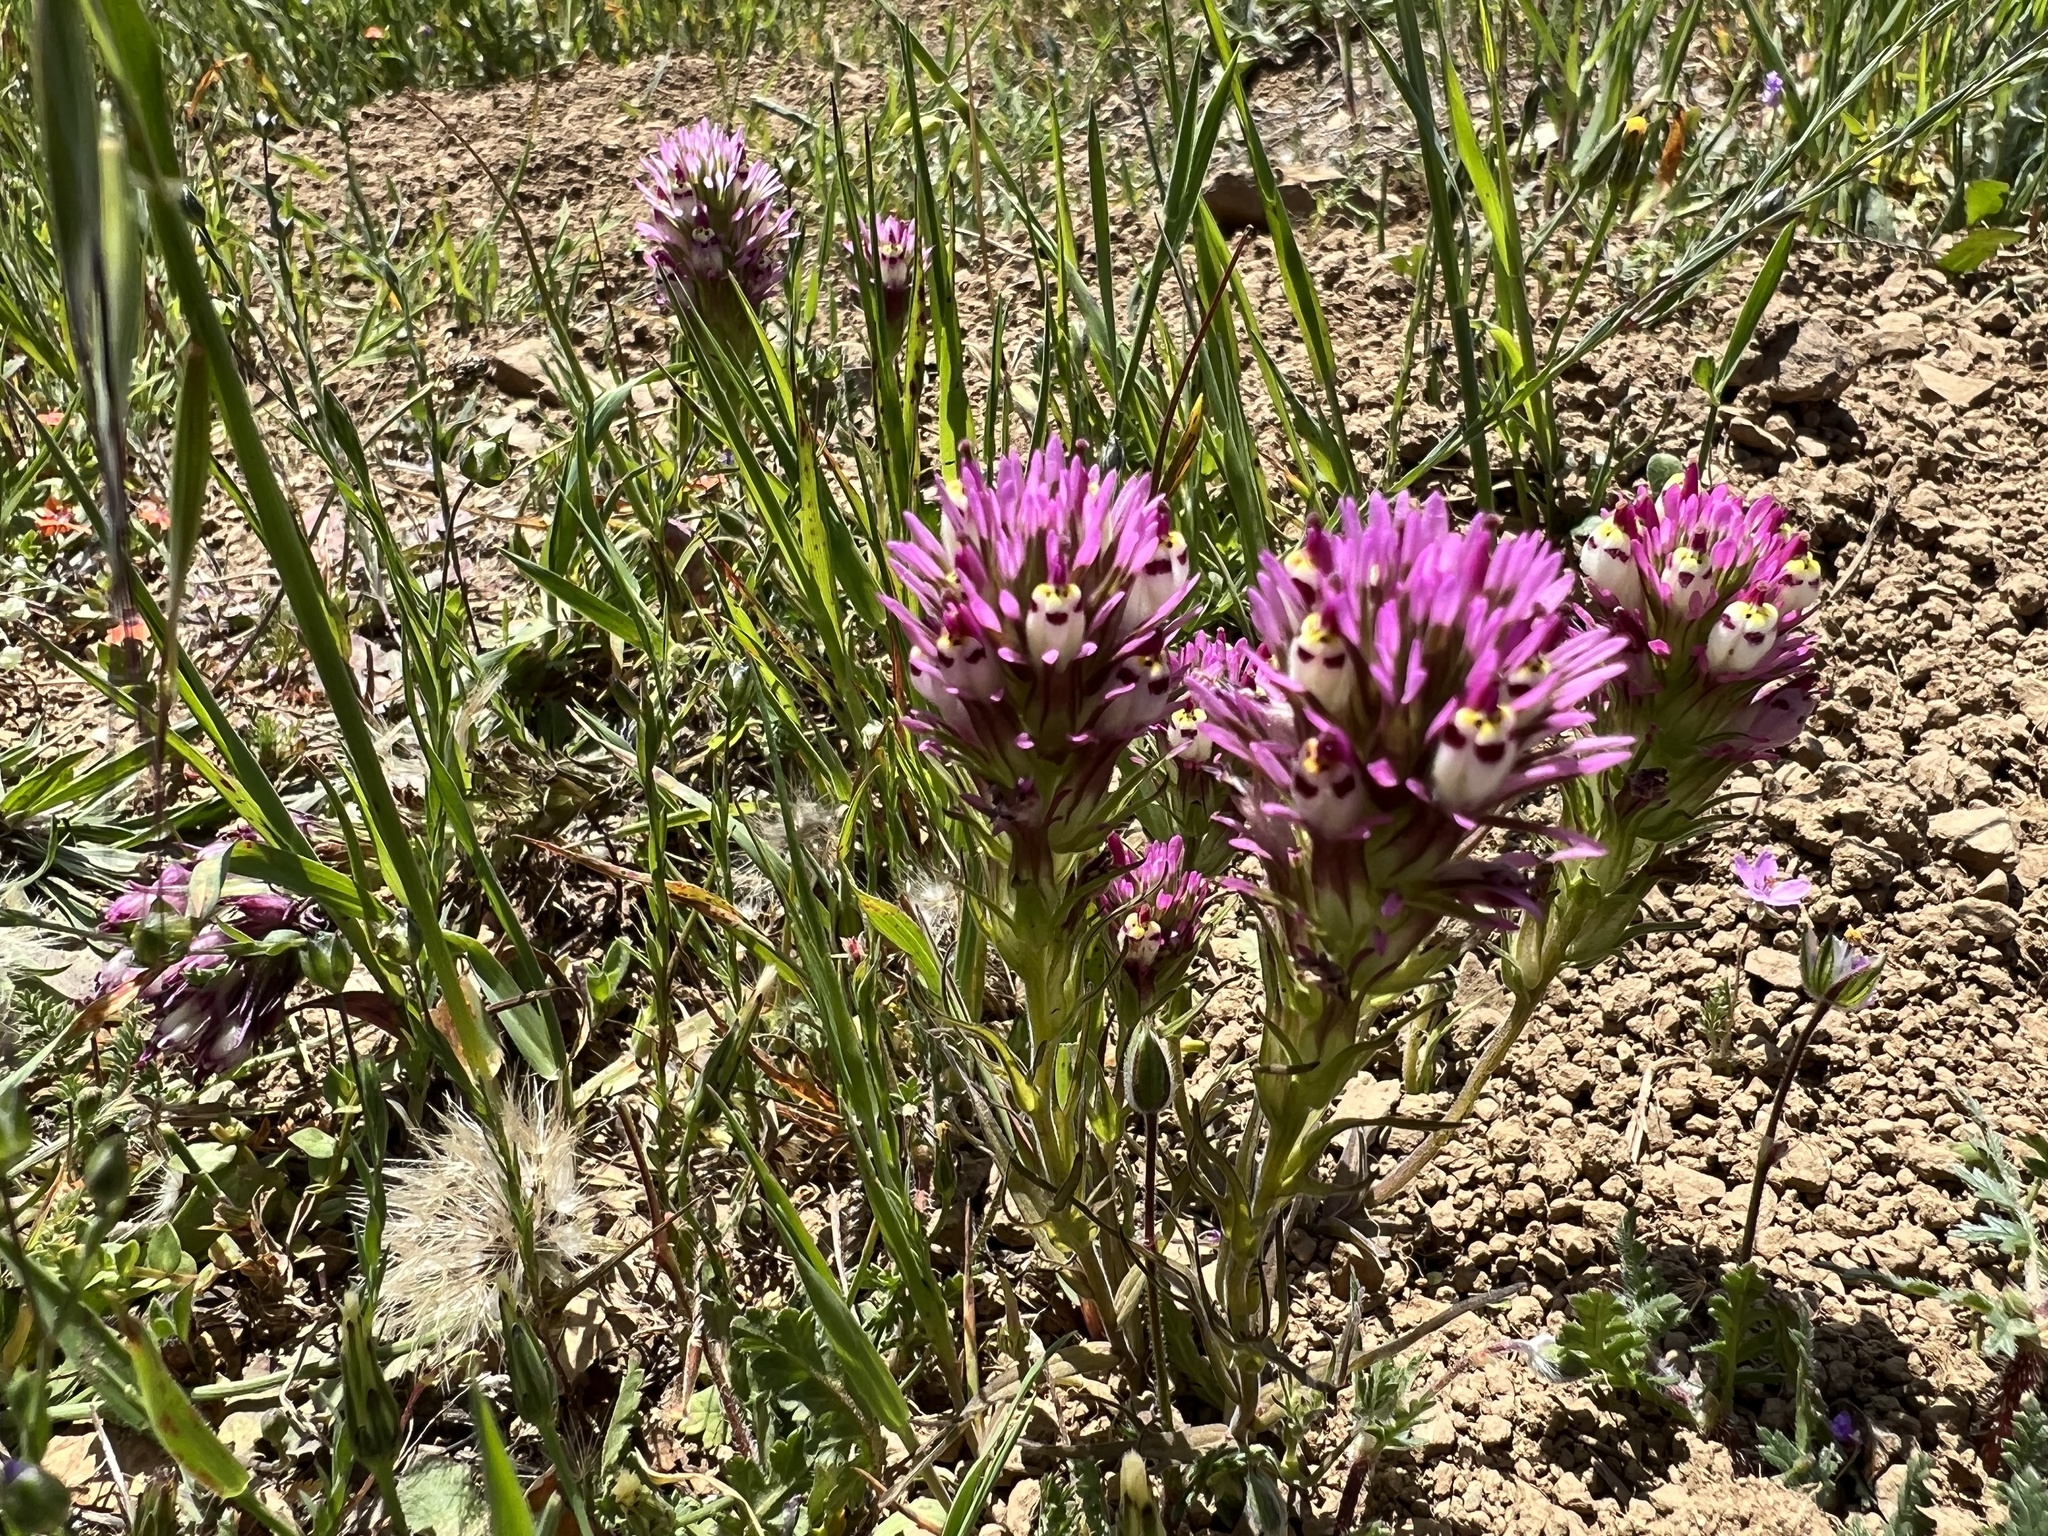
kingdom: Plantae
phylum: Tracheophyta
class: Magnoliopsida
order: Lamiales
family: Orobanchaceae
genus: Castilleja
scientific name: Castilleja densiflora
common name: Dense-flower indian paintbrush
